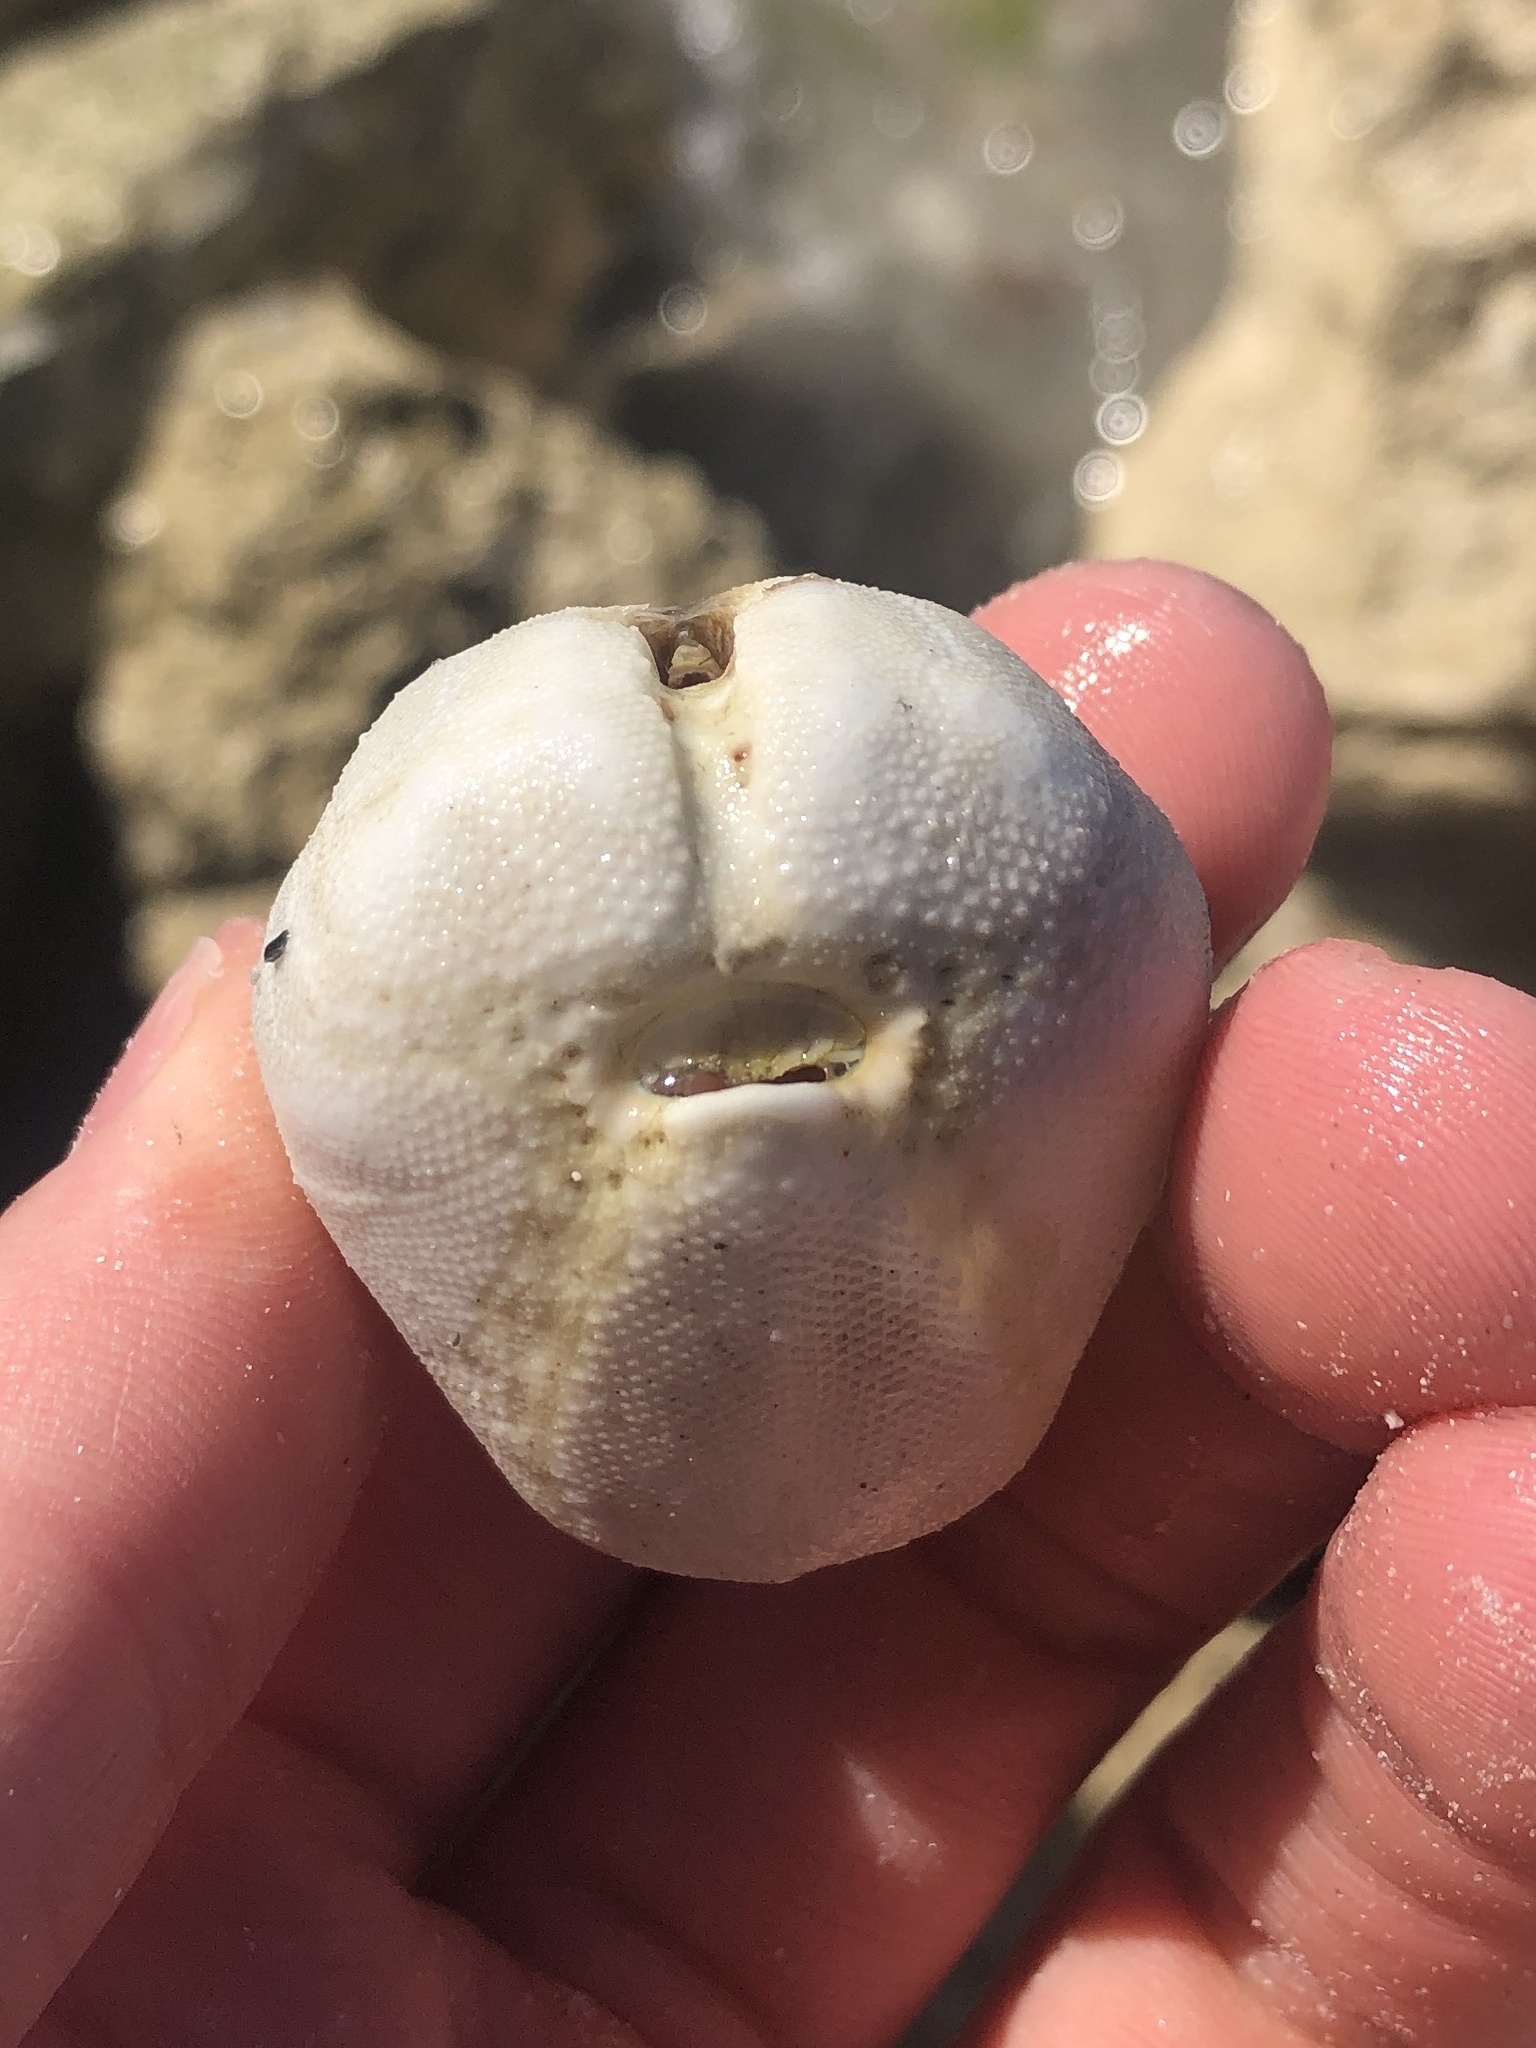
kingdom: Animalia
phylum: Echinodermata
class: Echinoidea
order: Spatangoida
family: Schizasteridae
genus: Moira
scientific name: Moira atropos
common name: Heart urchin
